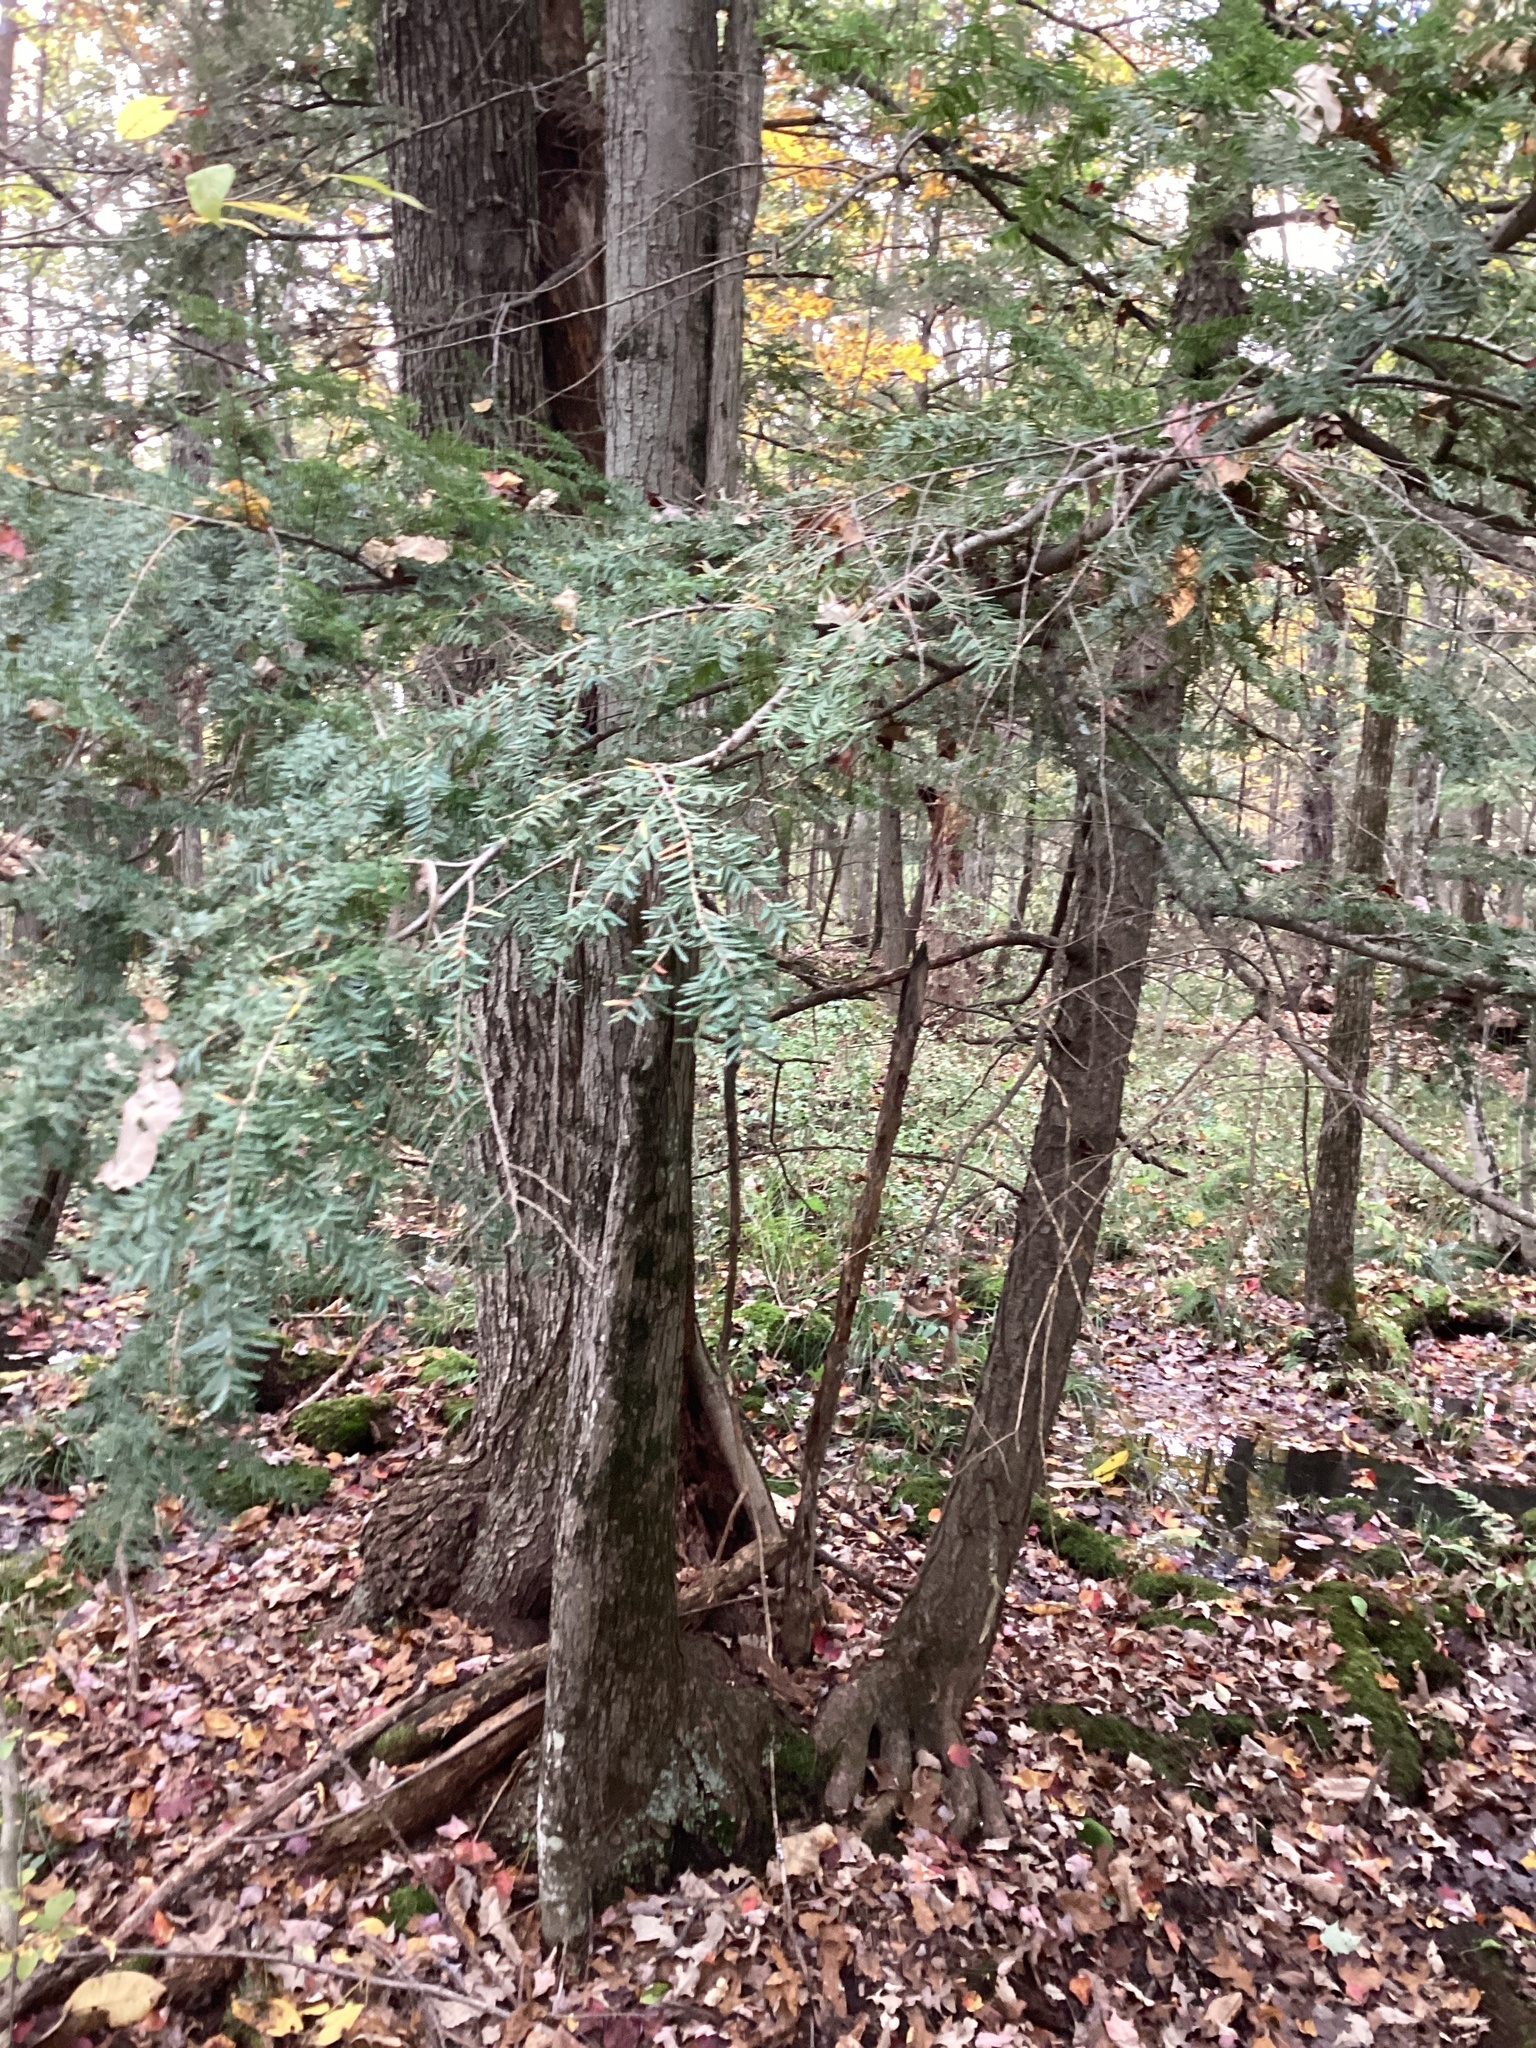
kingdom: Plantae
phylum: Tracheophyta
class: Pinopsida
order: Pinales
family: Pinaceae
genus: Tsuga
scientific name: Tsuga canadensis
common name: Eastern hemlock
